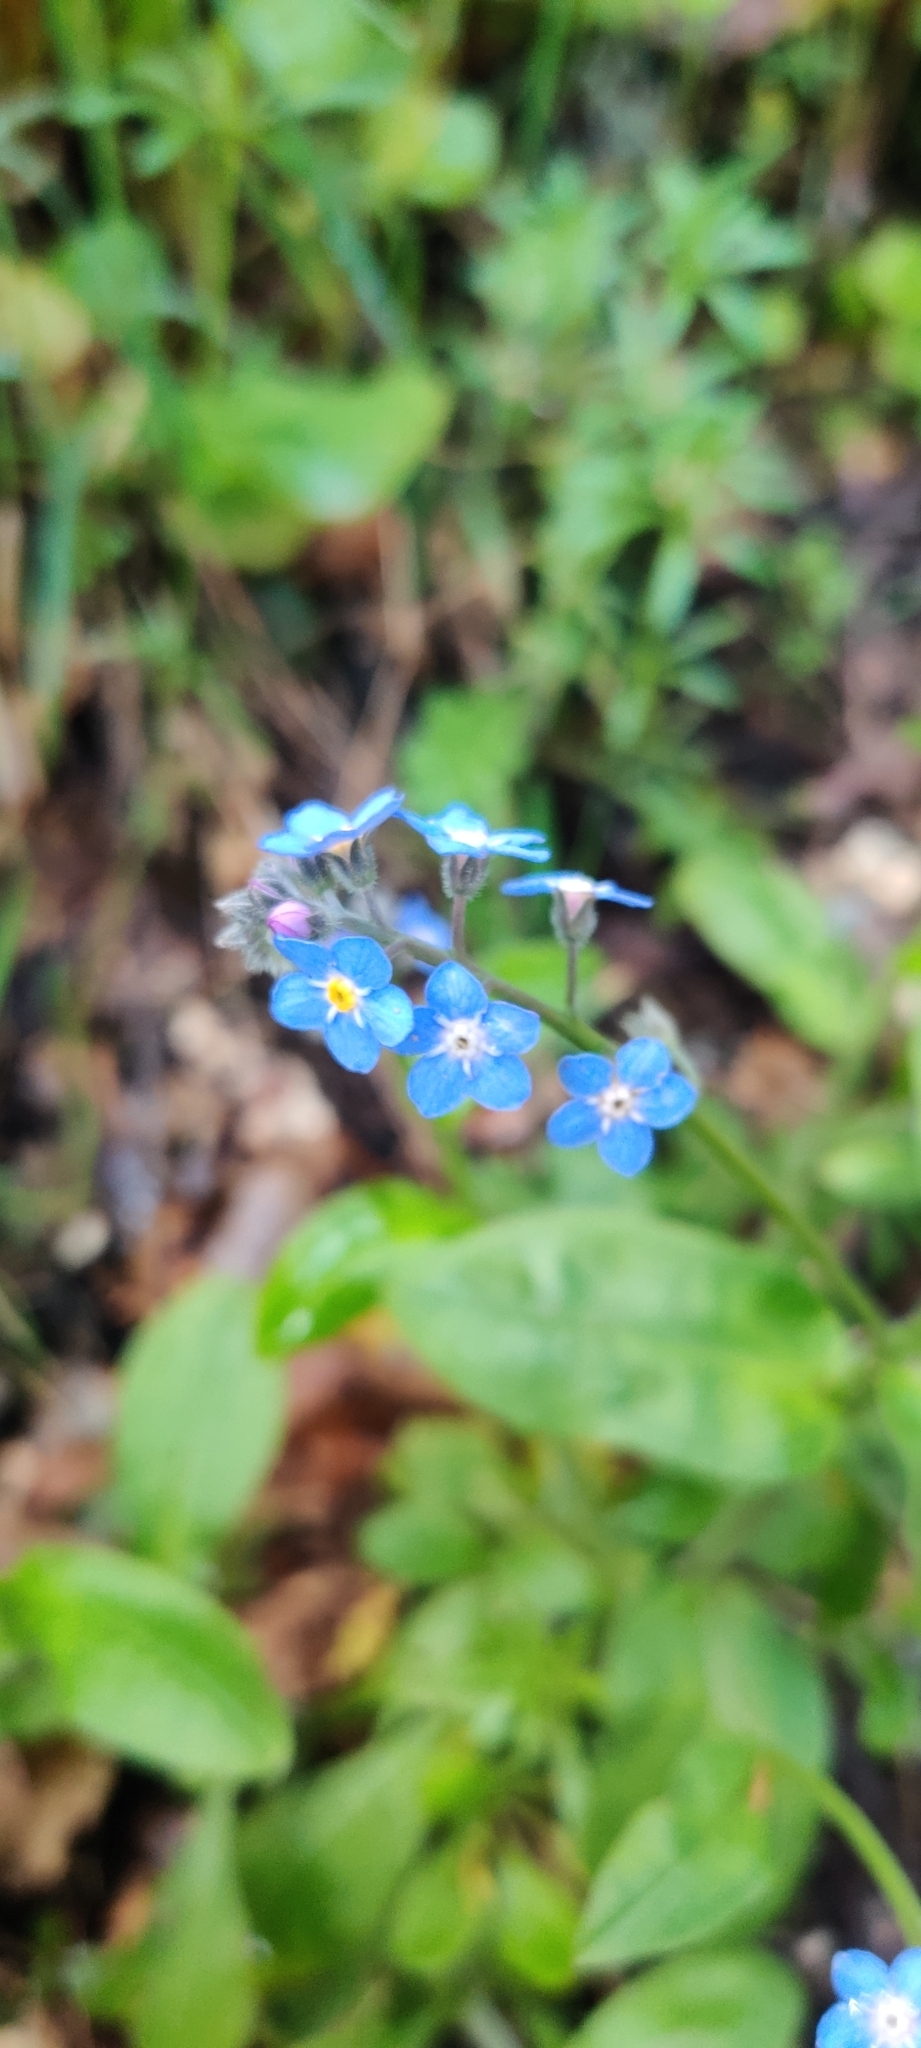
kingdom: Plantae
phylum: Tracheophyta
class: Magnoliopsida
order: Boraginales
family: Boraginaceae
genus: Myosotis
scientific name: Myosotis latifolia
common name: Broadleaf forget-me-not
